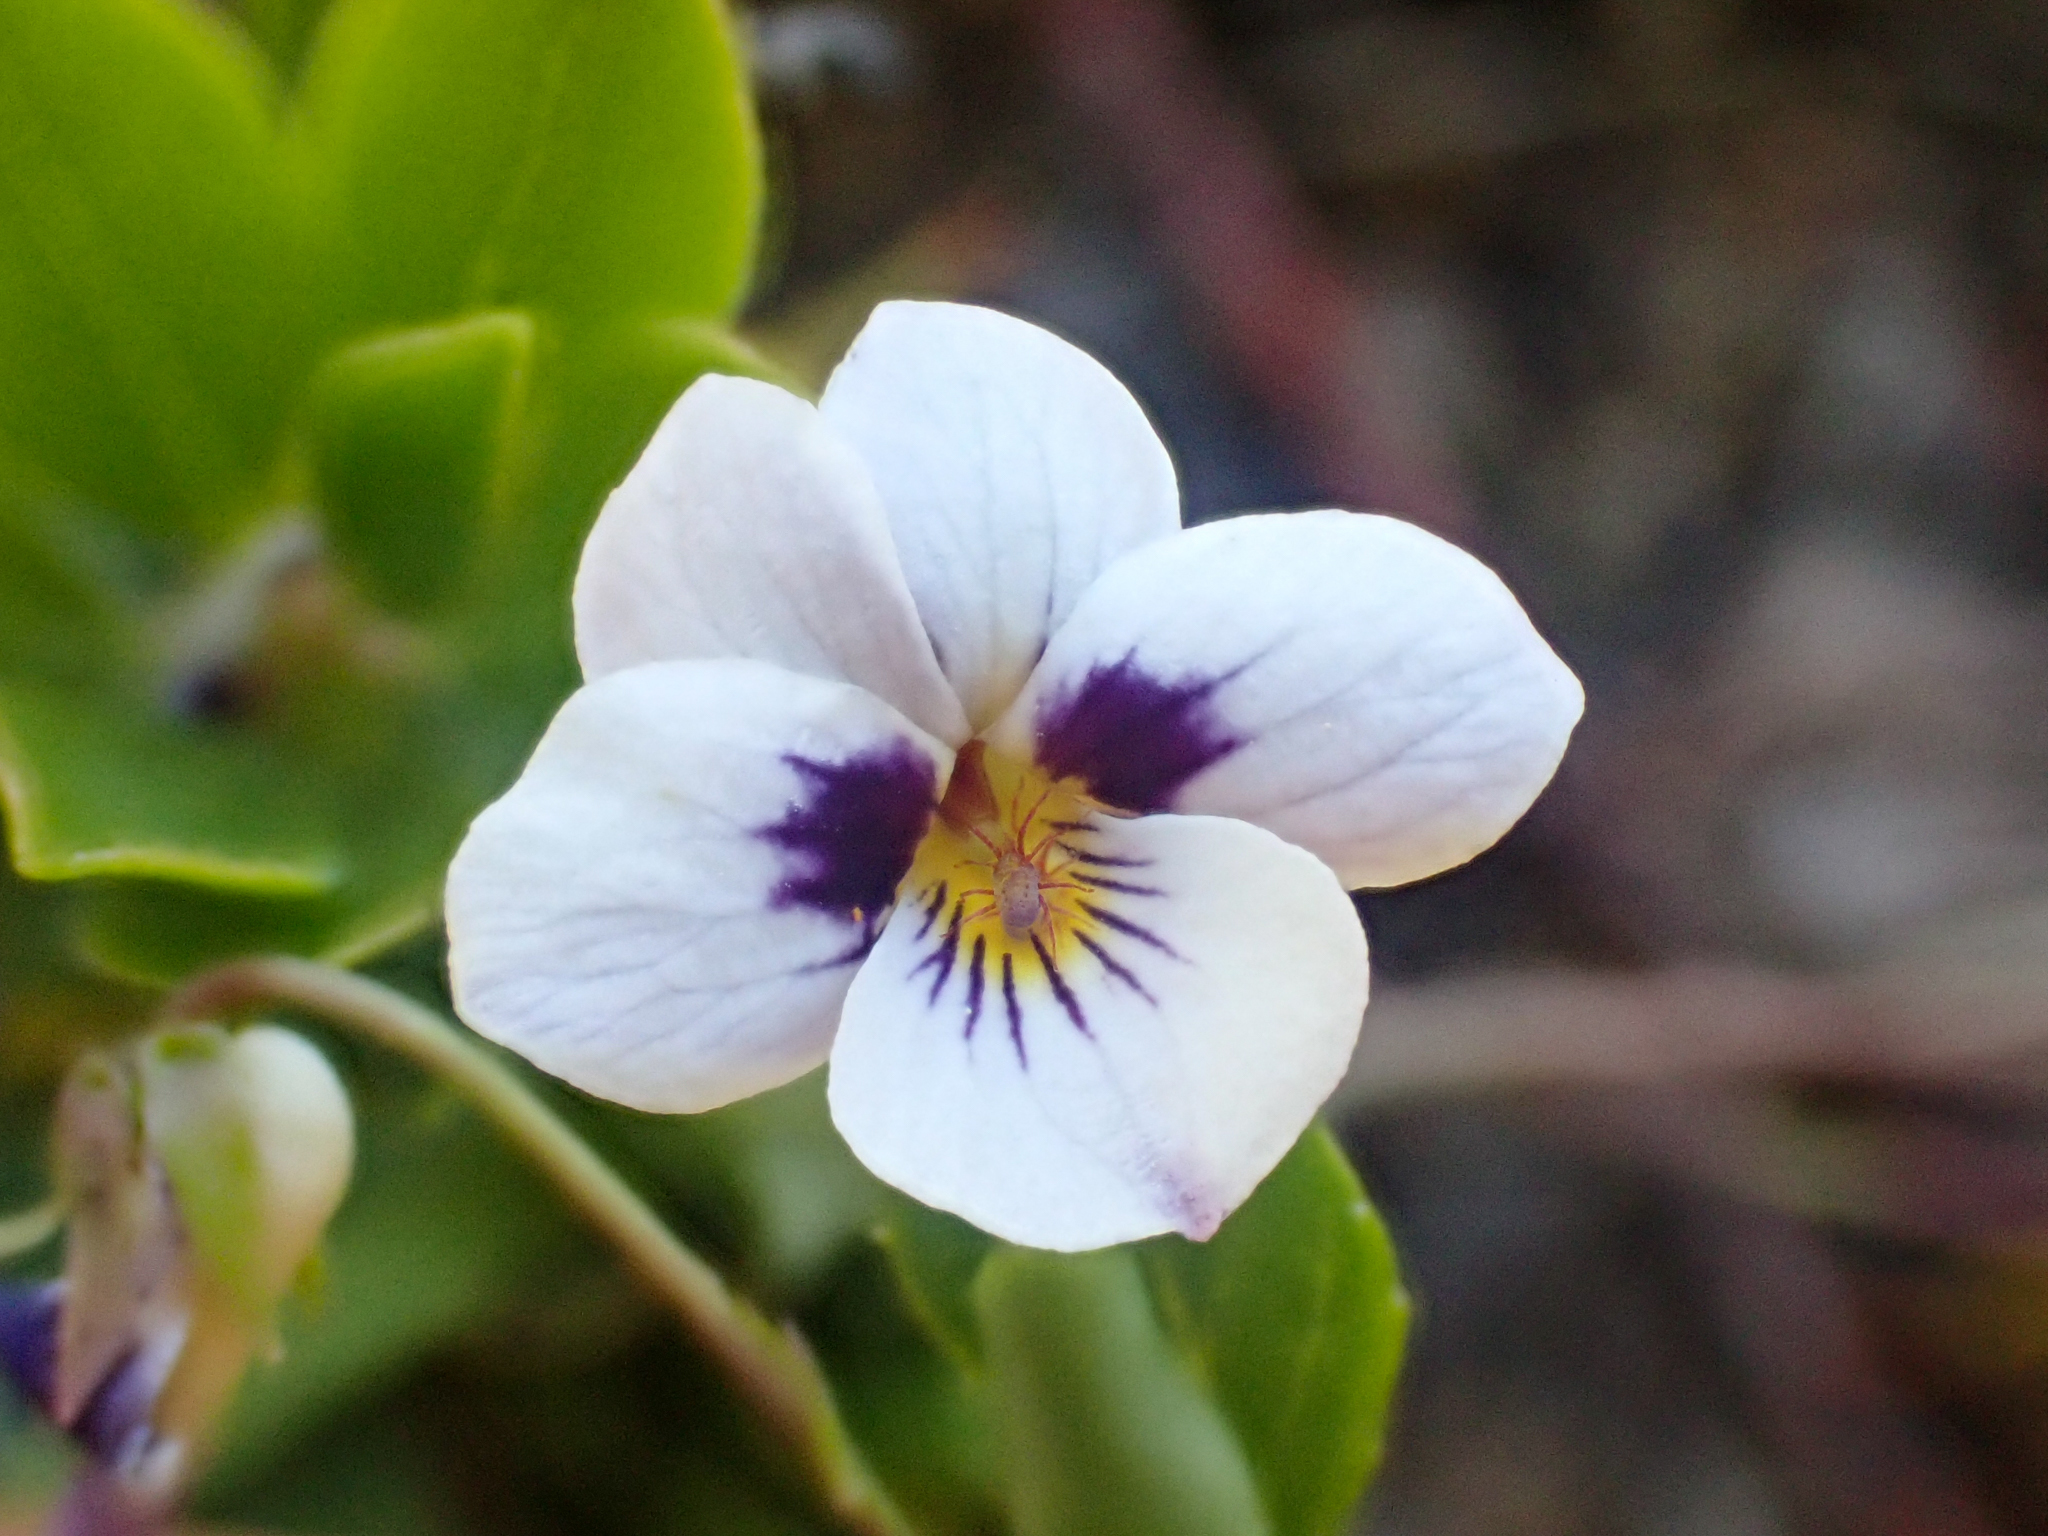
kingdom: Plantae
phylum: Tracheophyta
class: Magnoliopsida
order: Malpighiales
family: Violaceae
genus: Viola
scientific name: Viola cuneata
